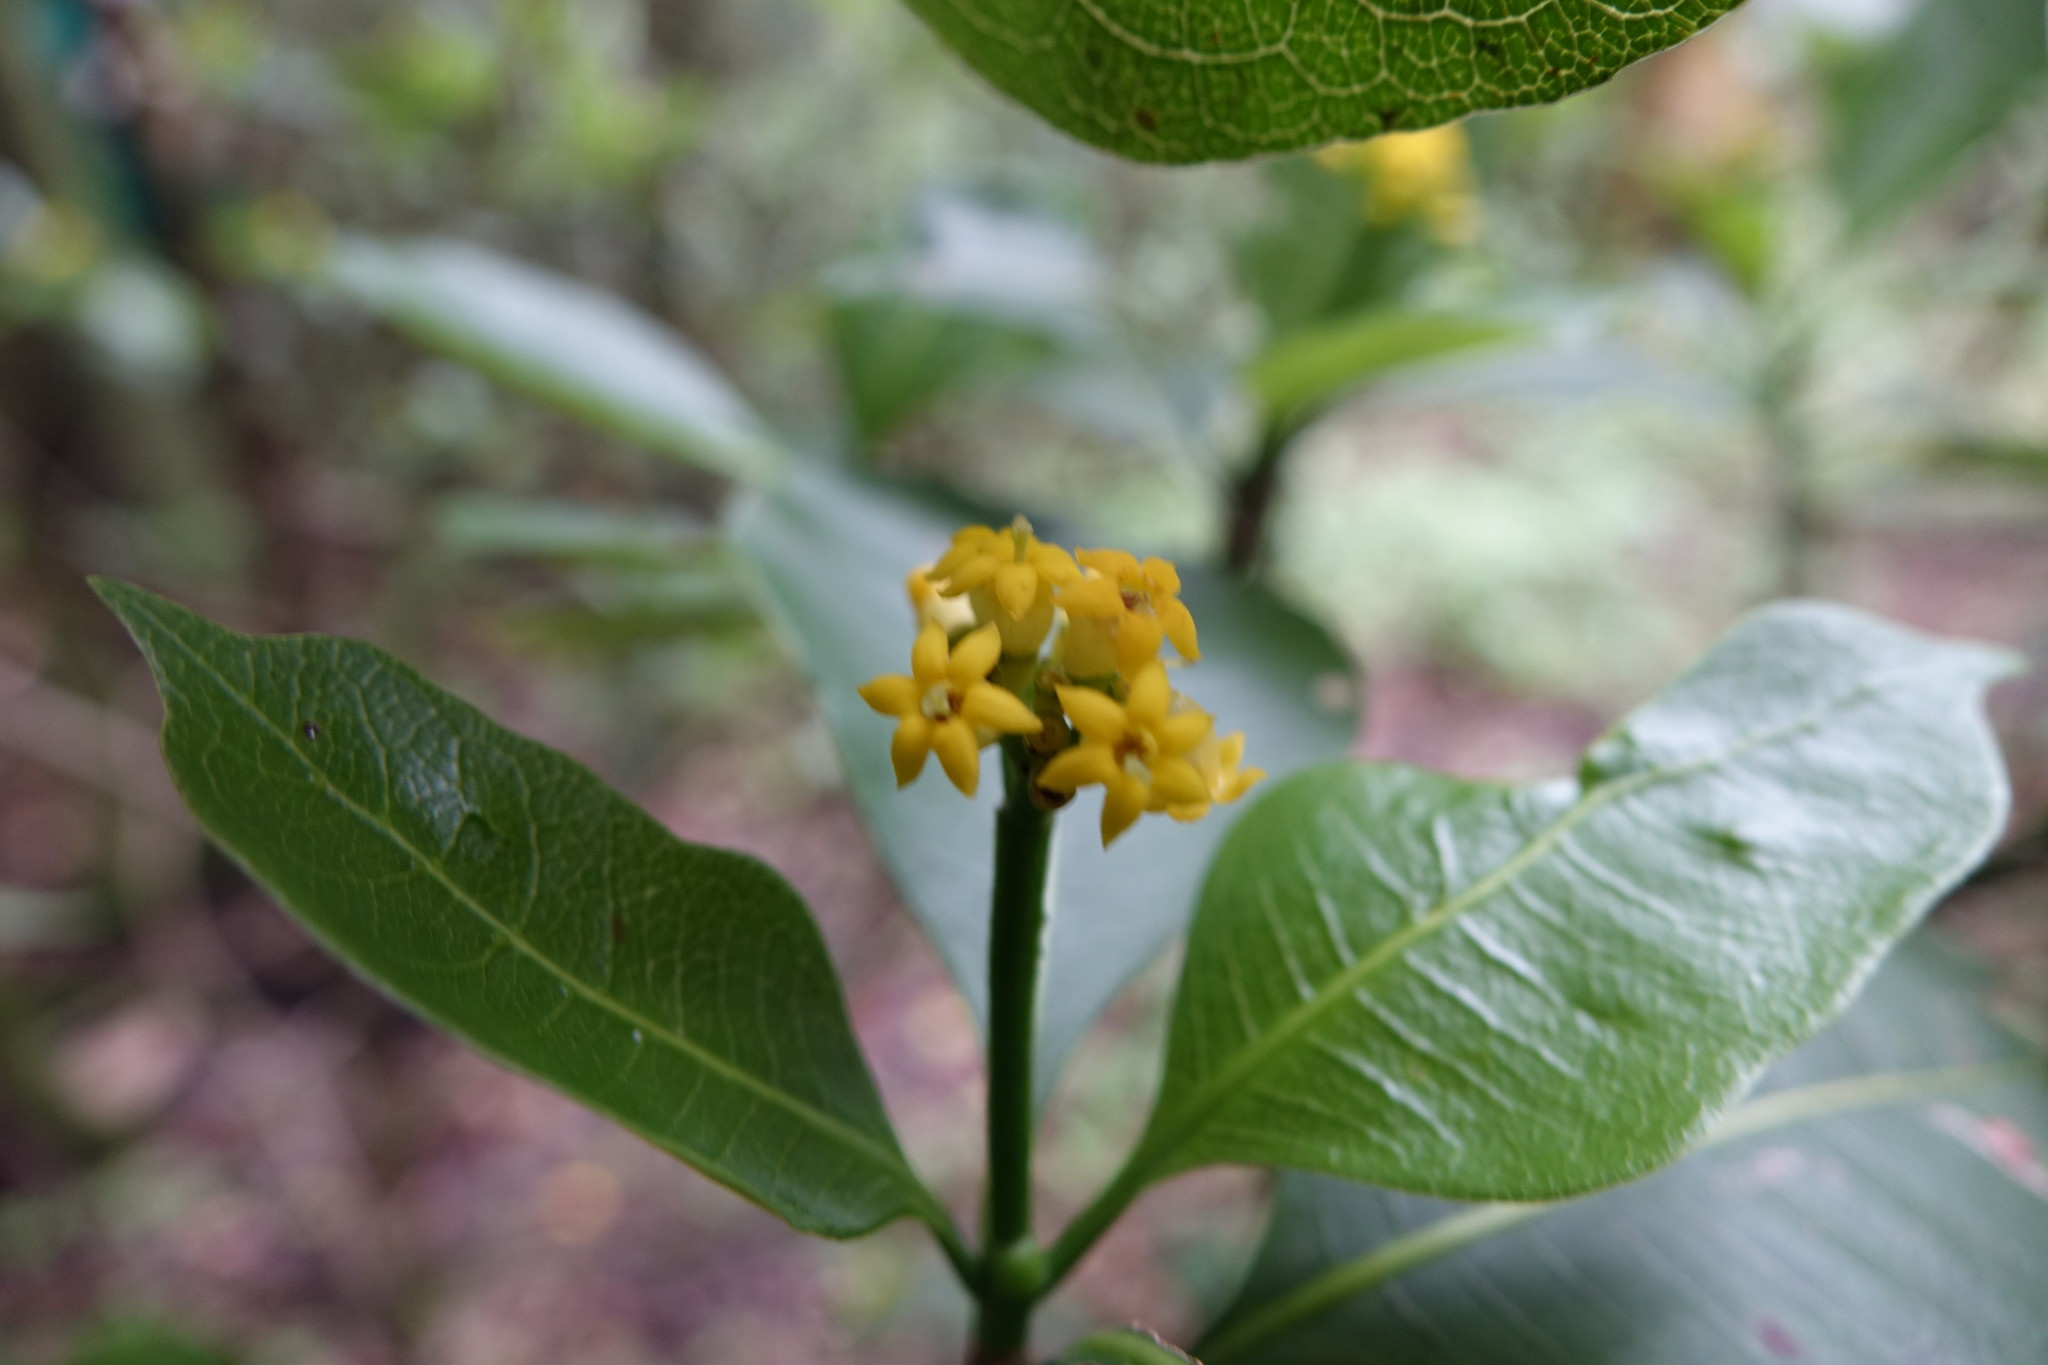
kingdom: Plantae
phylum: Tracheophyta
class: Magnoliopsida
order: Gentianales
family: Rubiaceae
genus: Psychotria
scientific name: Psychotria reducta
